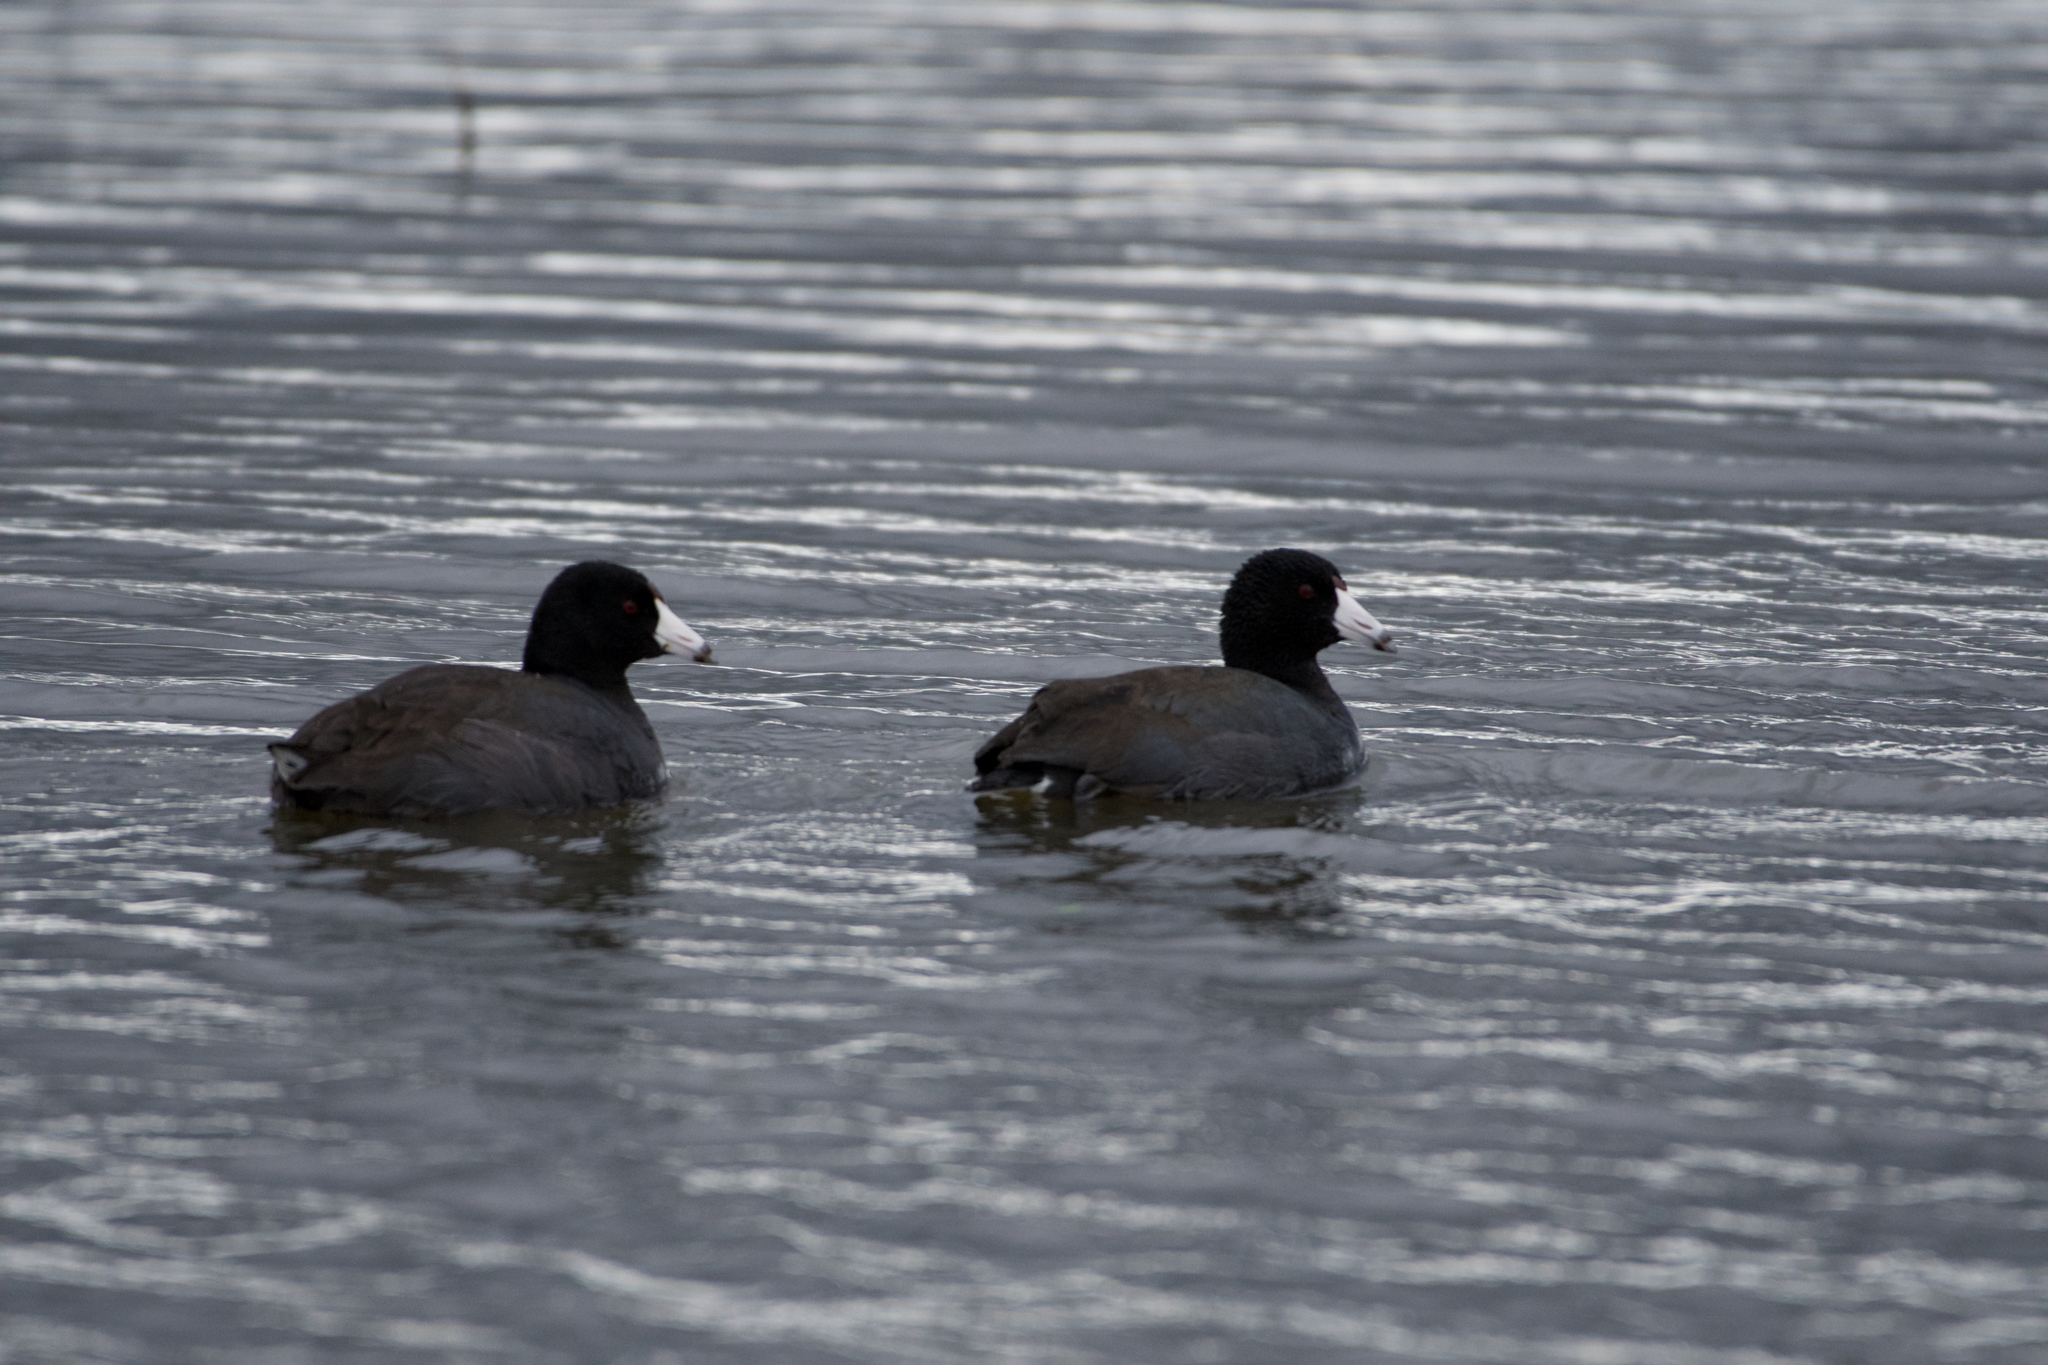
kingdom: Animalia
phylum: Chordata
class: Aves
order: Gruiformes
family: Rallidae
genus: Fulica
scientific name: Fulica americana
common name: American coot
